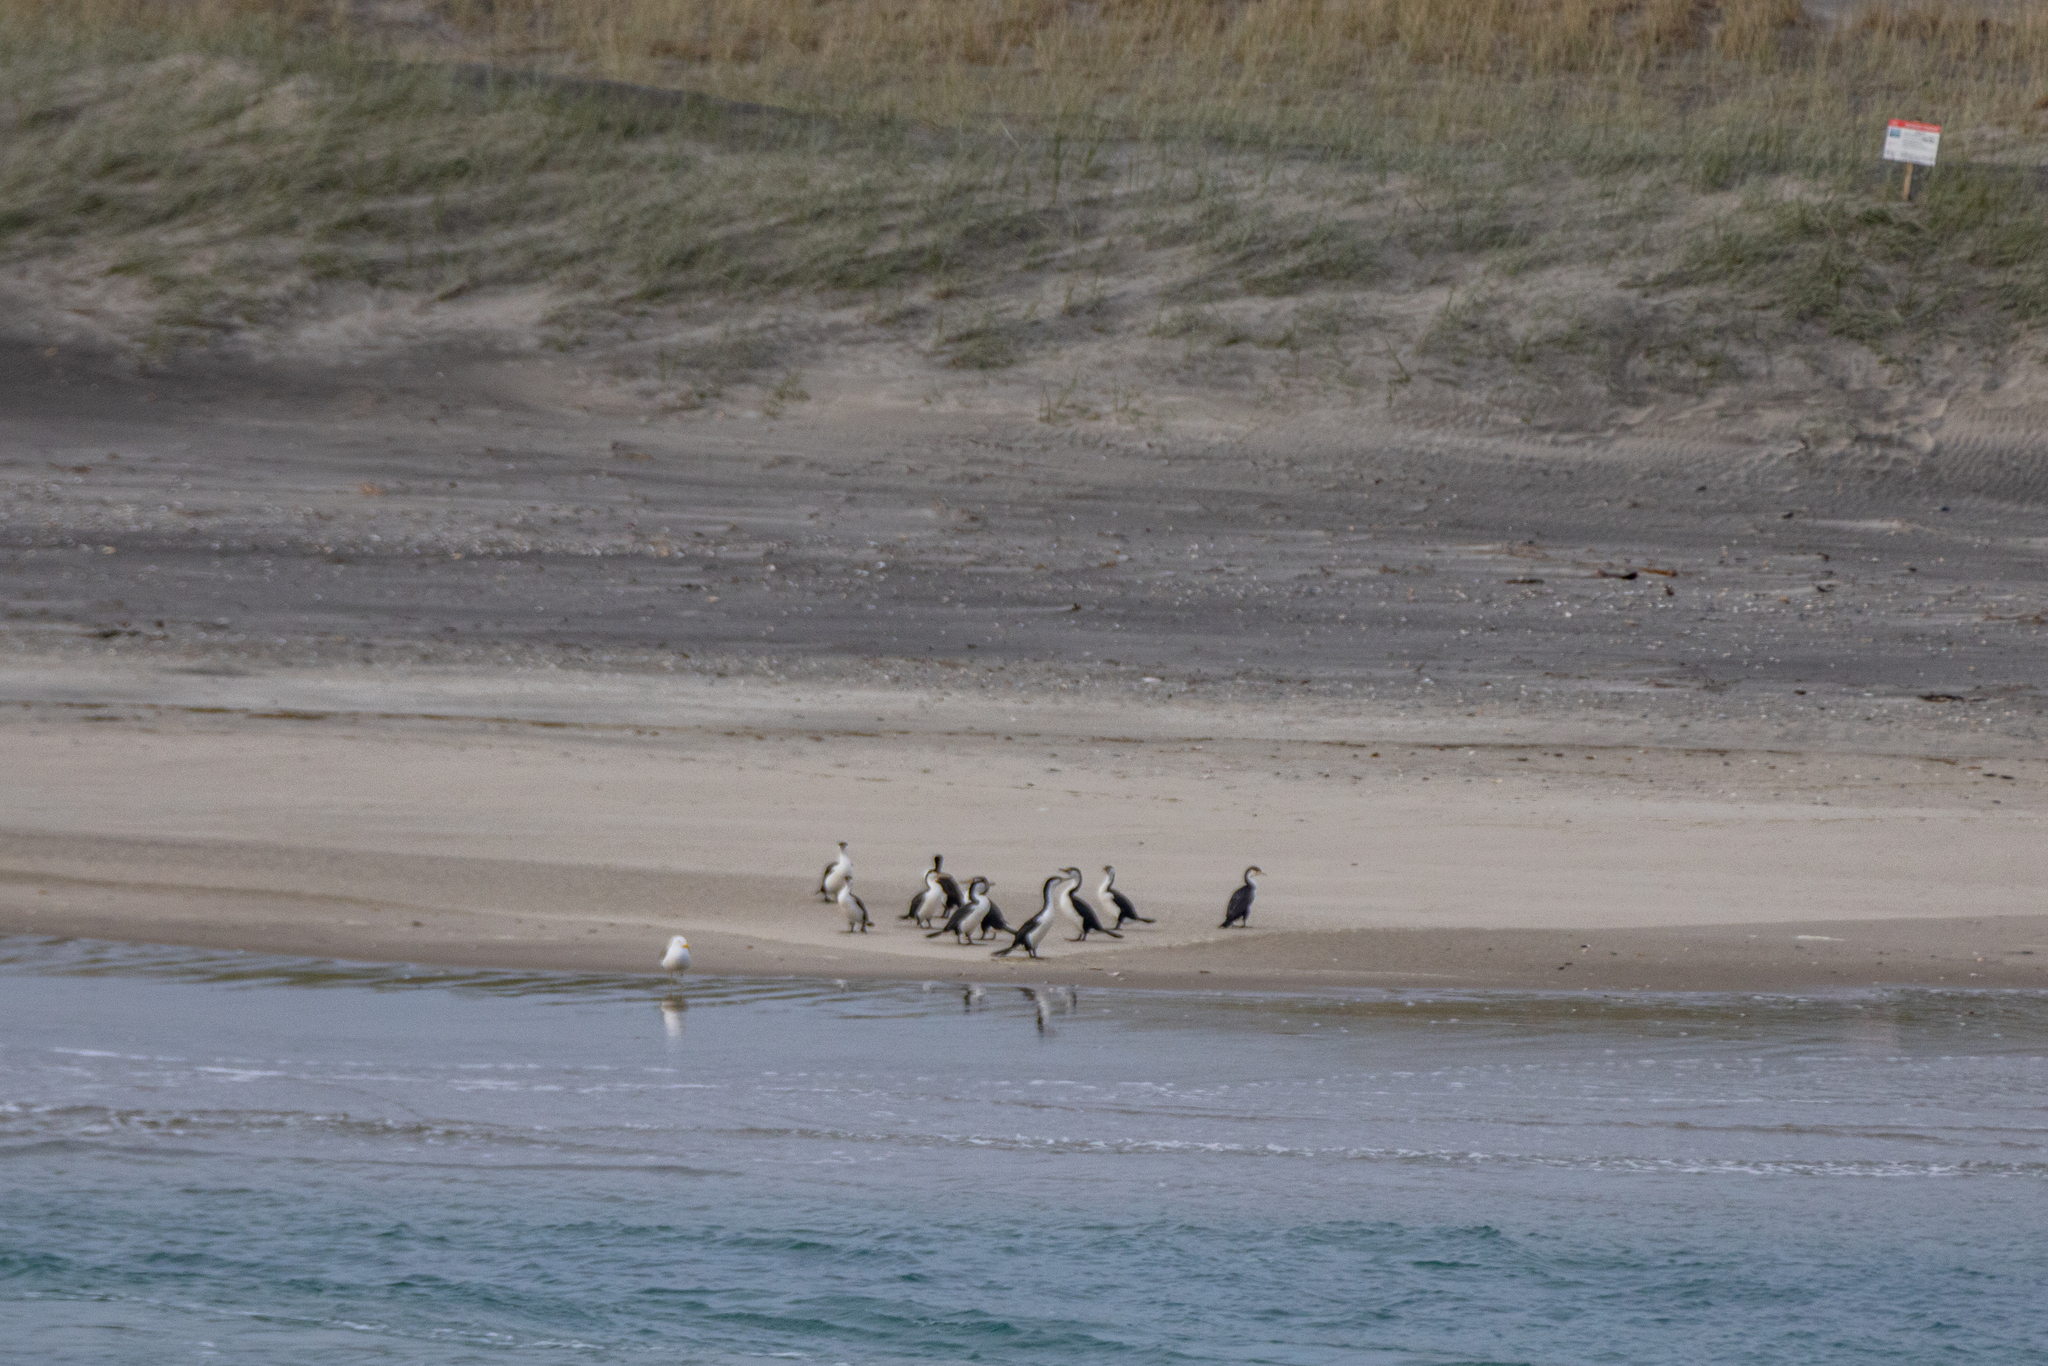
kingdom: Animalia
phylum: Chordata
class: Aves
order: Suliformes
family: Phalacrocoracidae
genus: Phalacrocorax
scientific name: Phalacrocorax varius
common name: Pied cormorant
